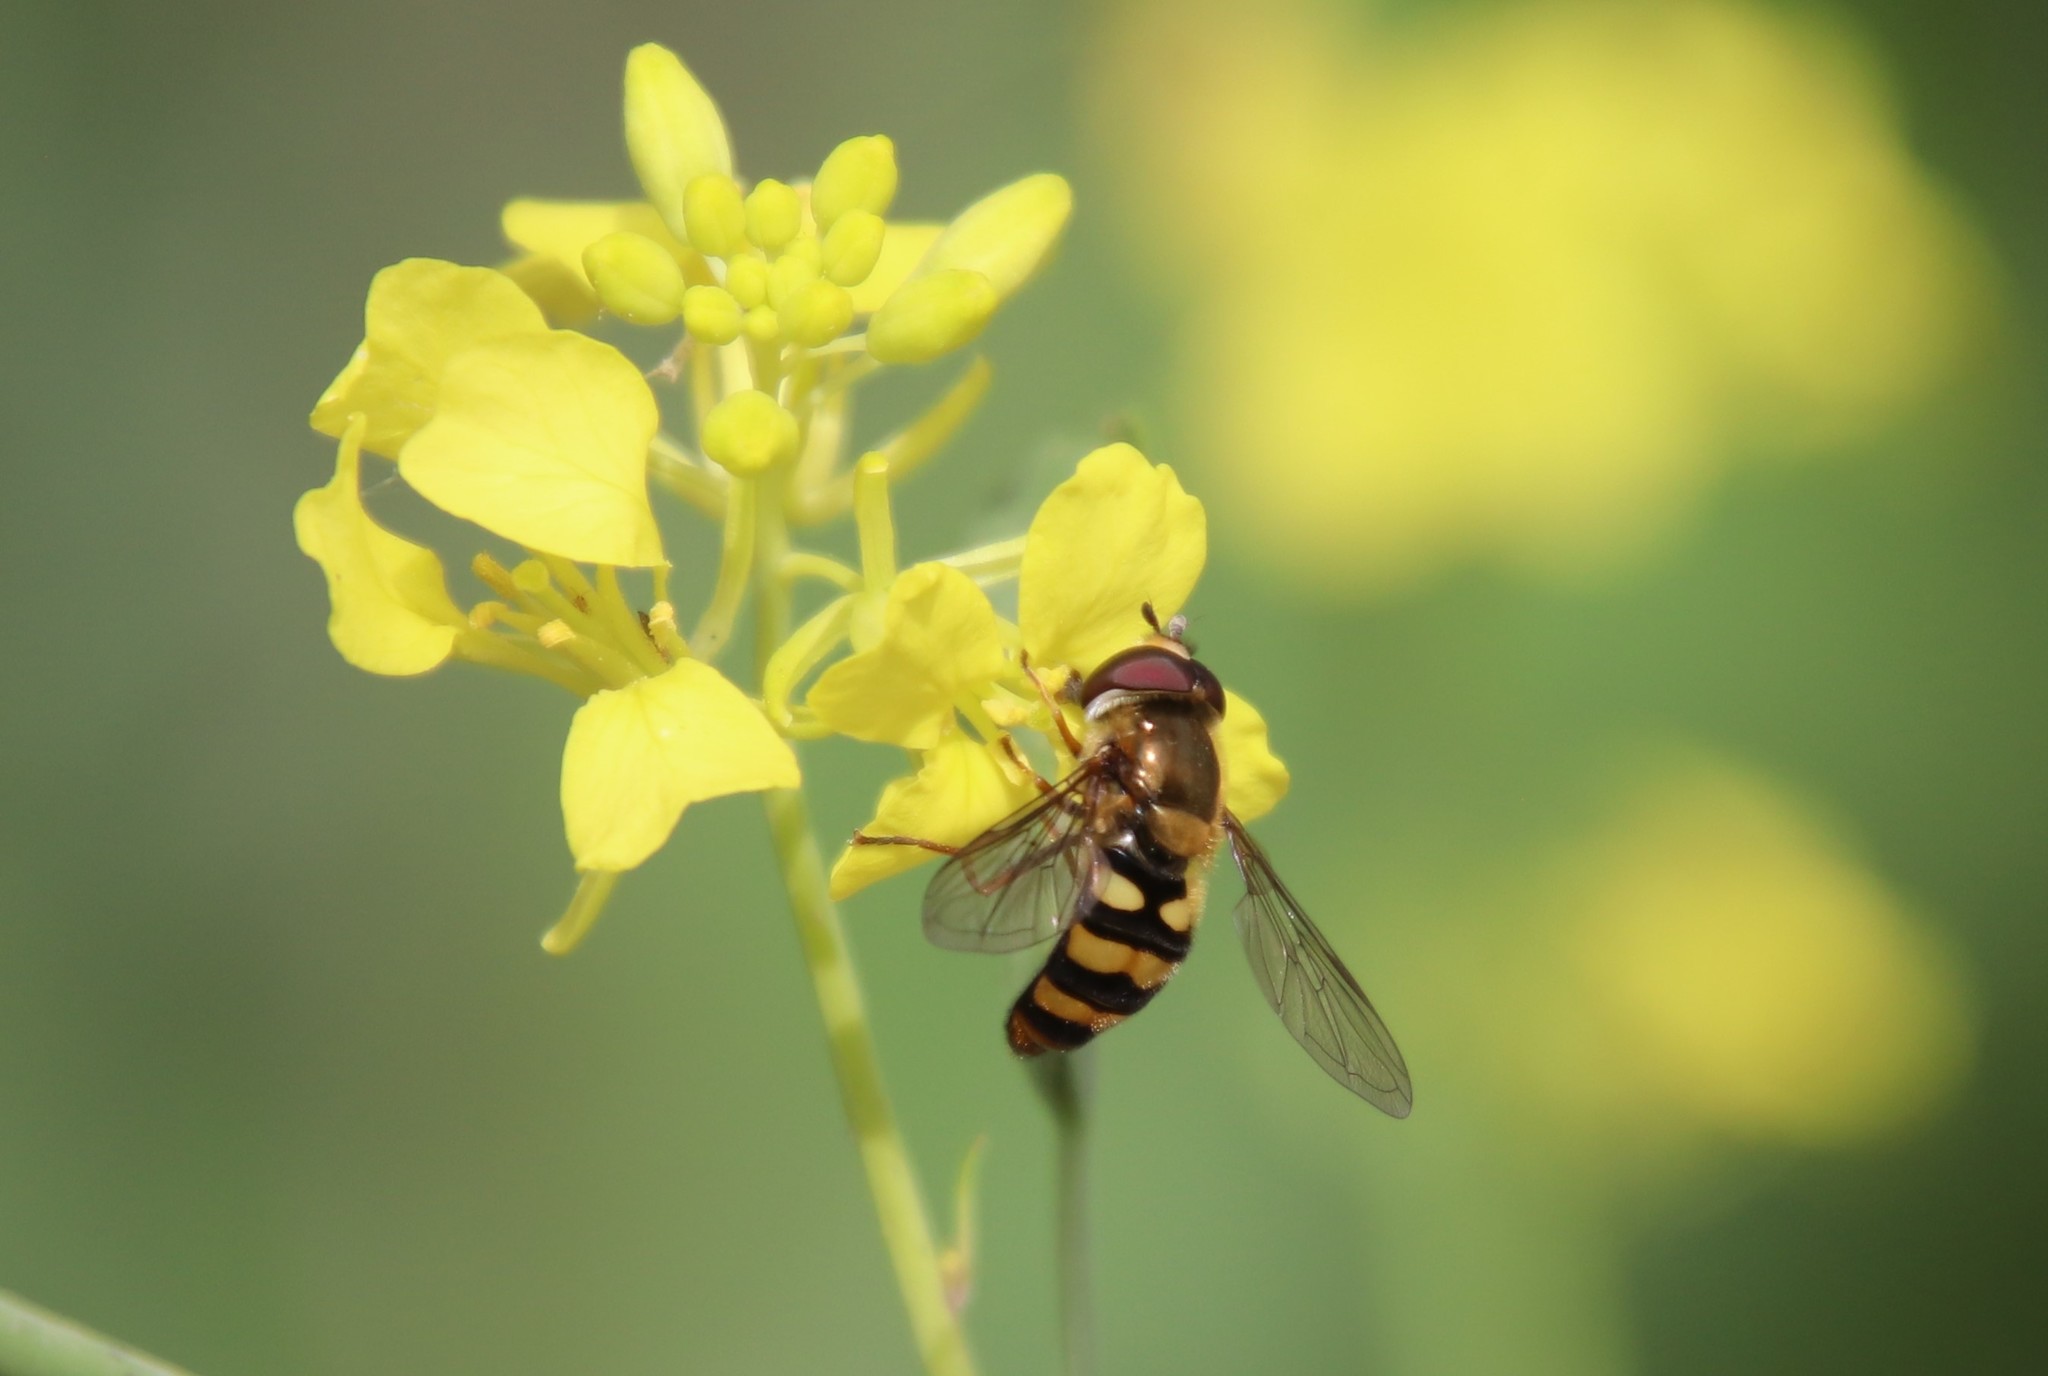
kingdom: Animalia
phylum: Arthropoda
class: Insecta
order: Diptera
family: Syrphidae
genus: Eupeodes
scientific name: Eupeodes fumipennis
